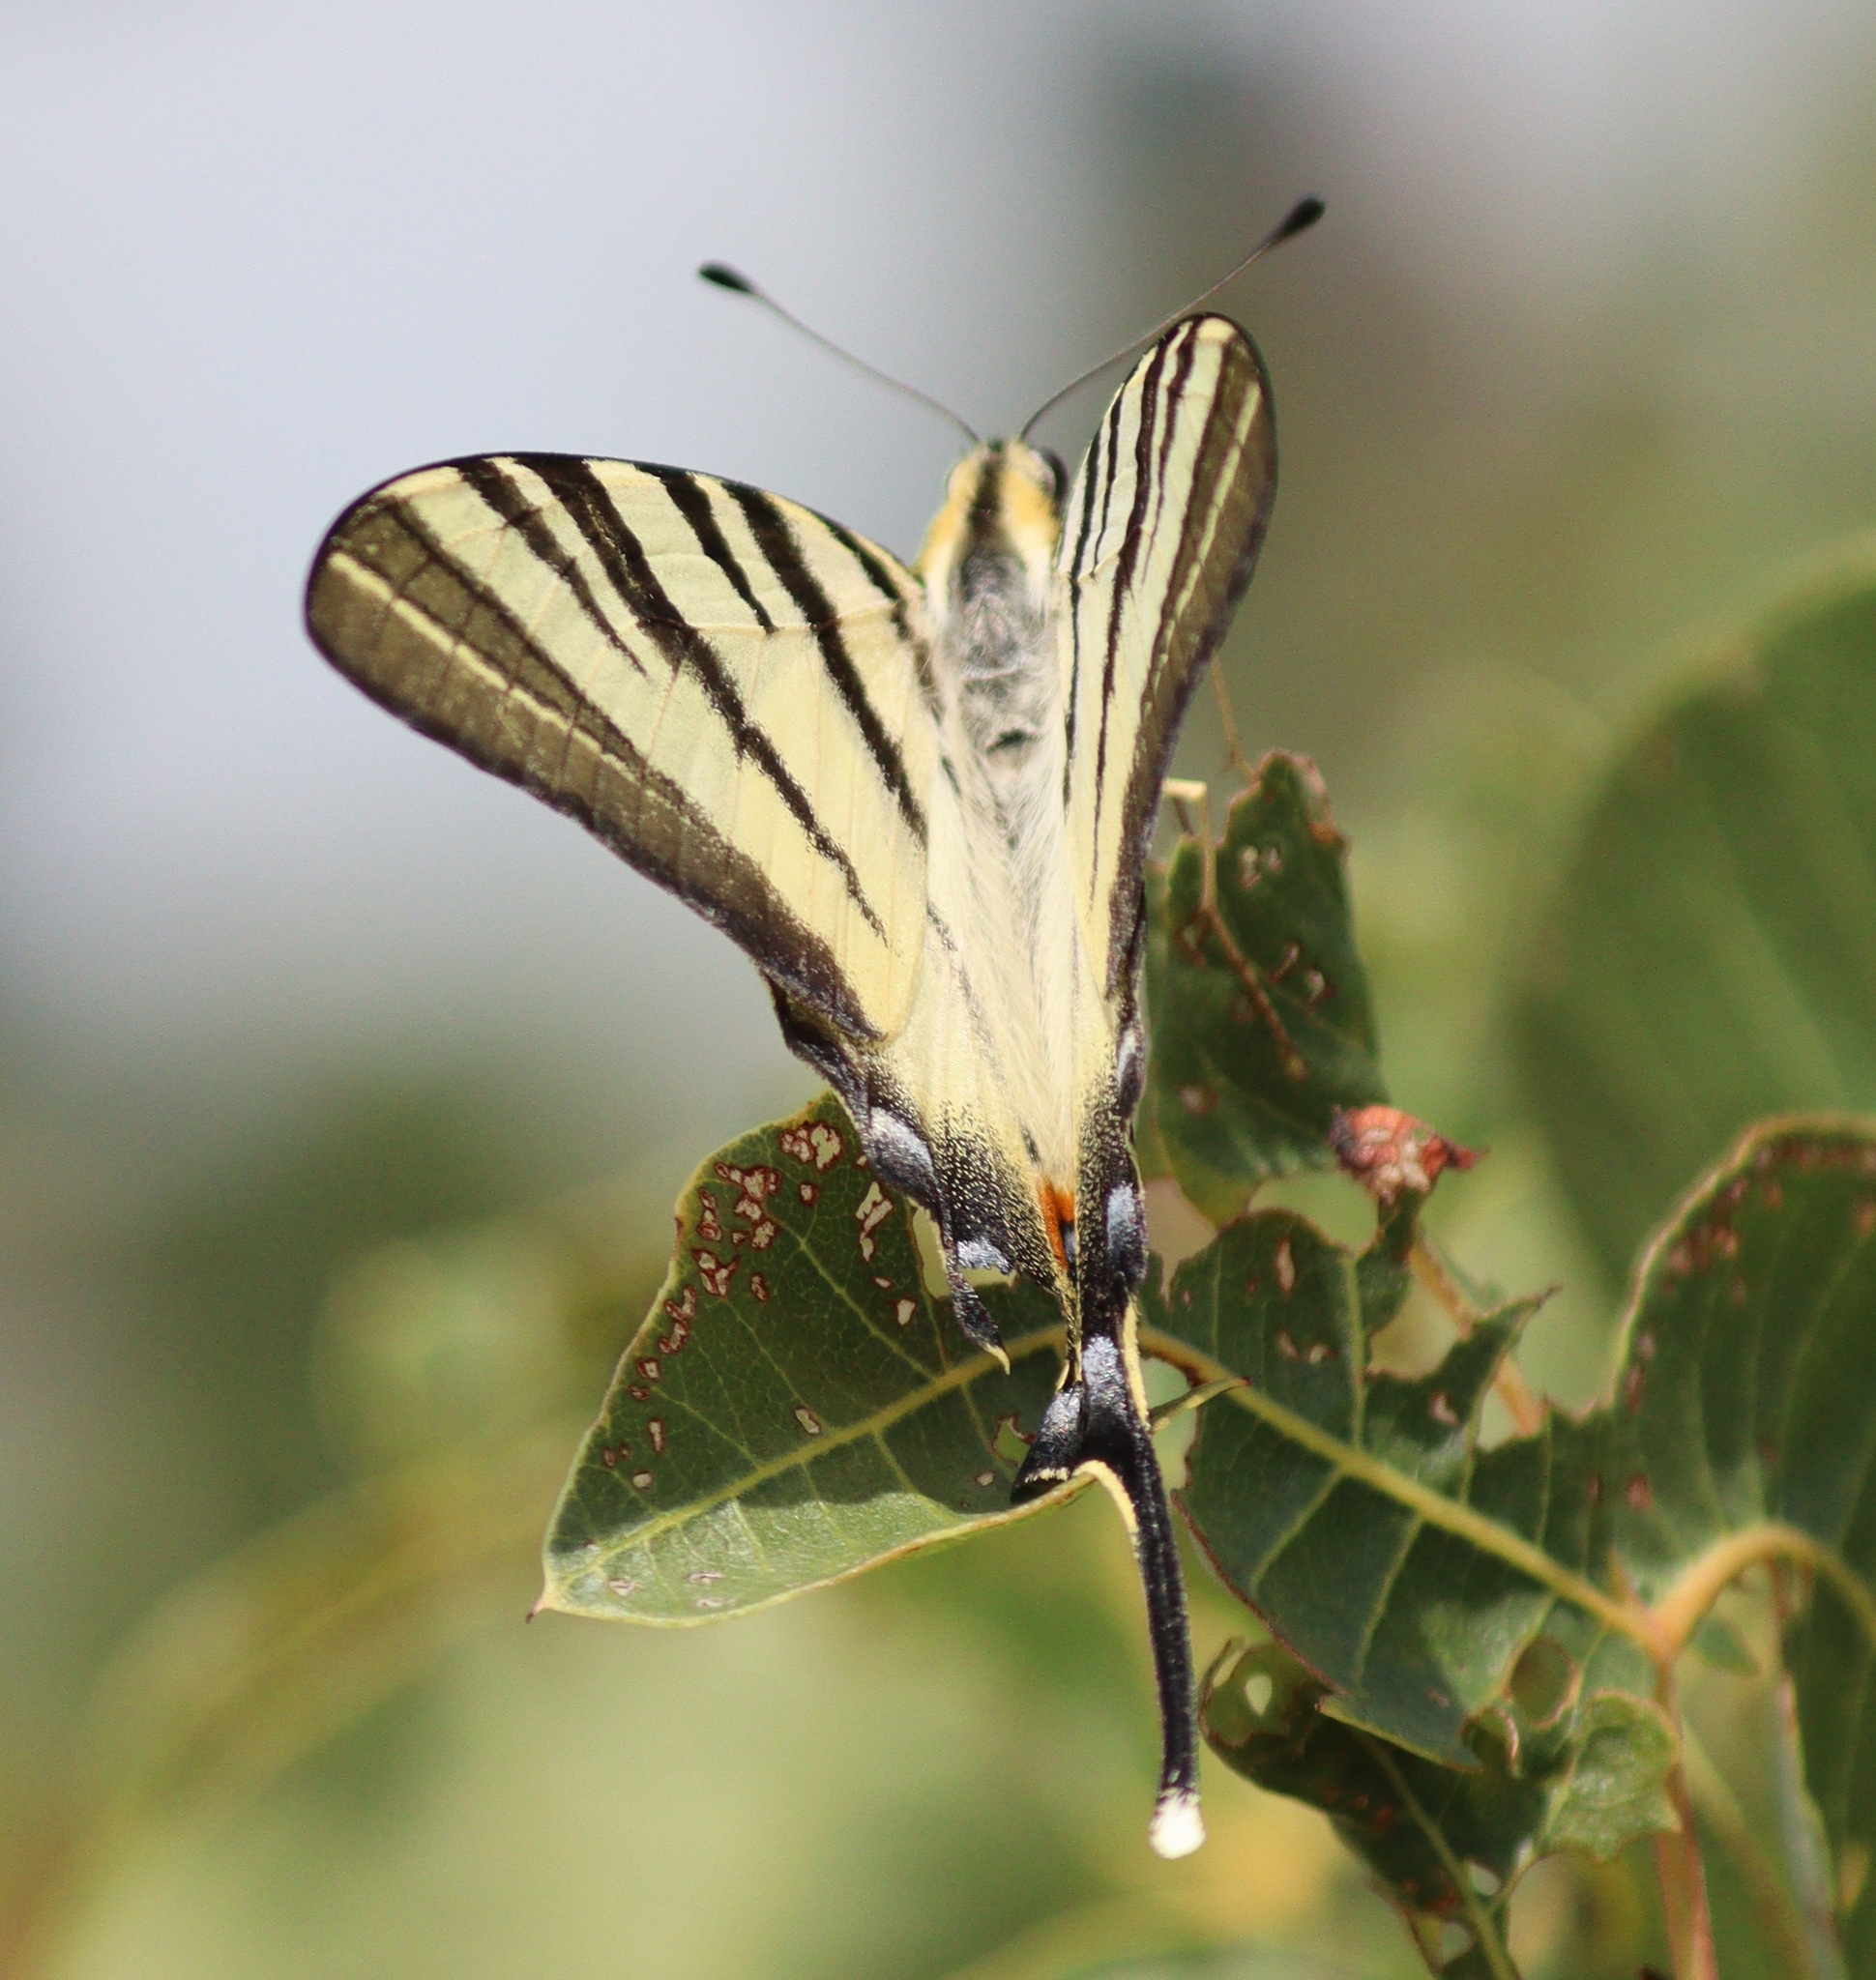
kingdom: Animalia
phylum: Arthropoda
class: Insecta
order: Lepidoptera
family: Papilionidae
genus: Iphiclides
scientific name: Iphiclides podalirius
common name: Scarce swallowtail
